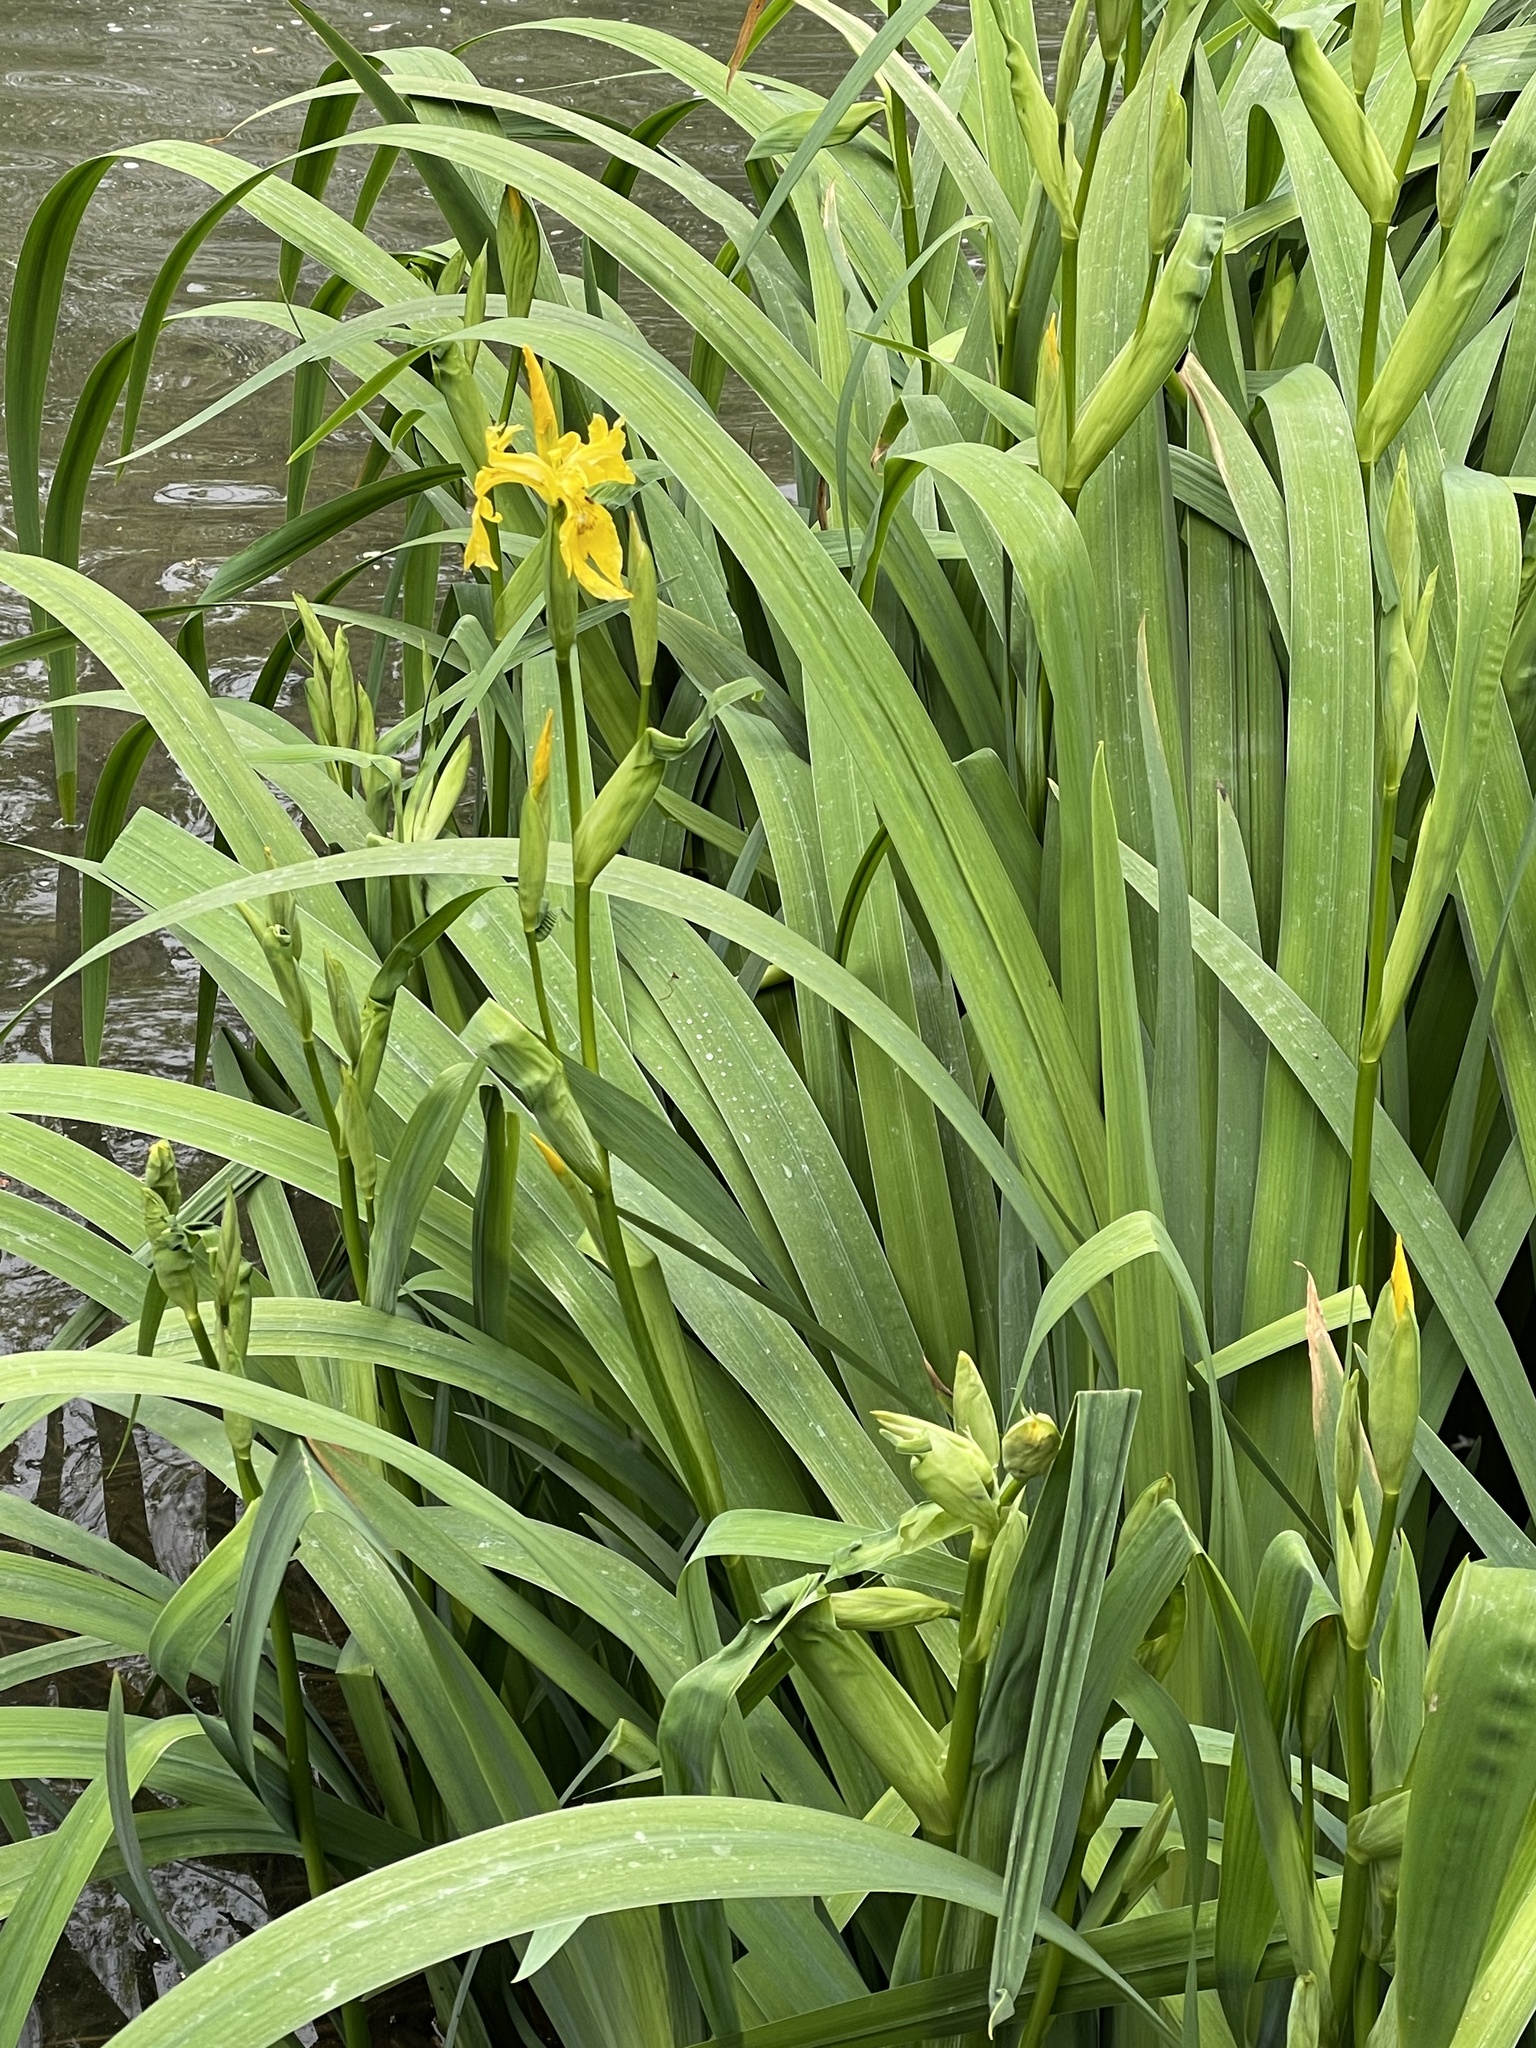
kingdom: Plantae
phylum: Tracheophyta
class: Liliopsida
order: Asparagales
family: Iridaceae
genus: Iris
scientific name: Iris pseudacorus
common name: Yellow flag
